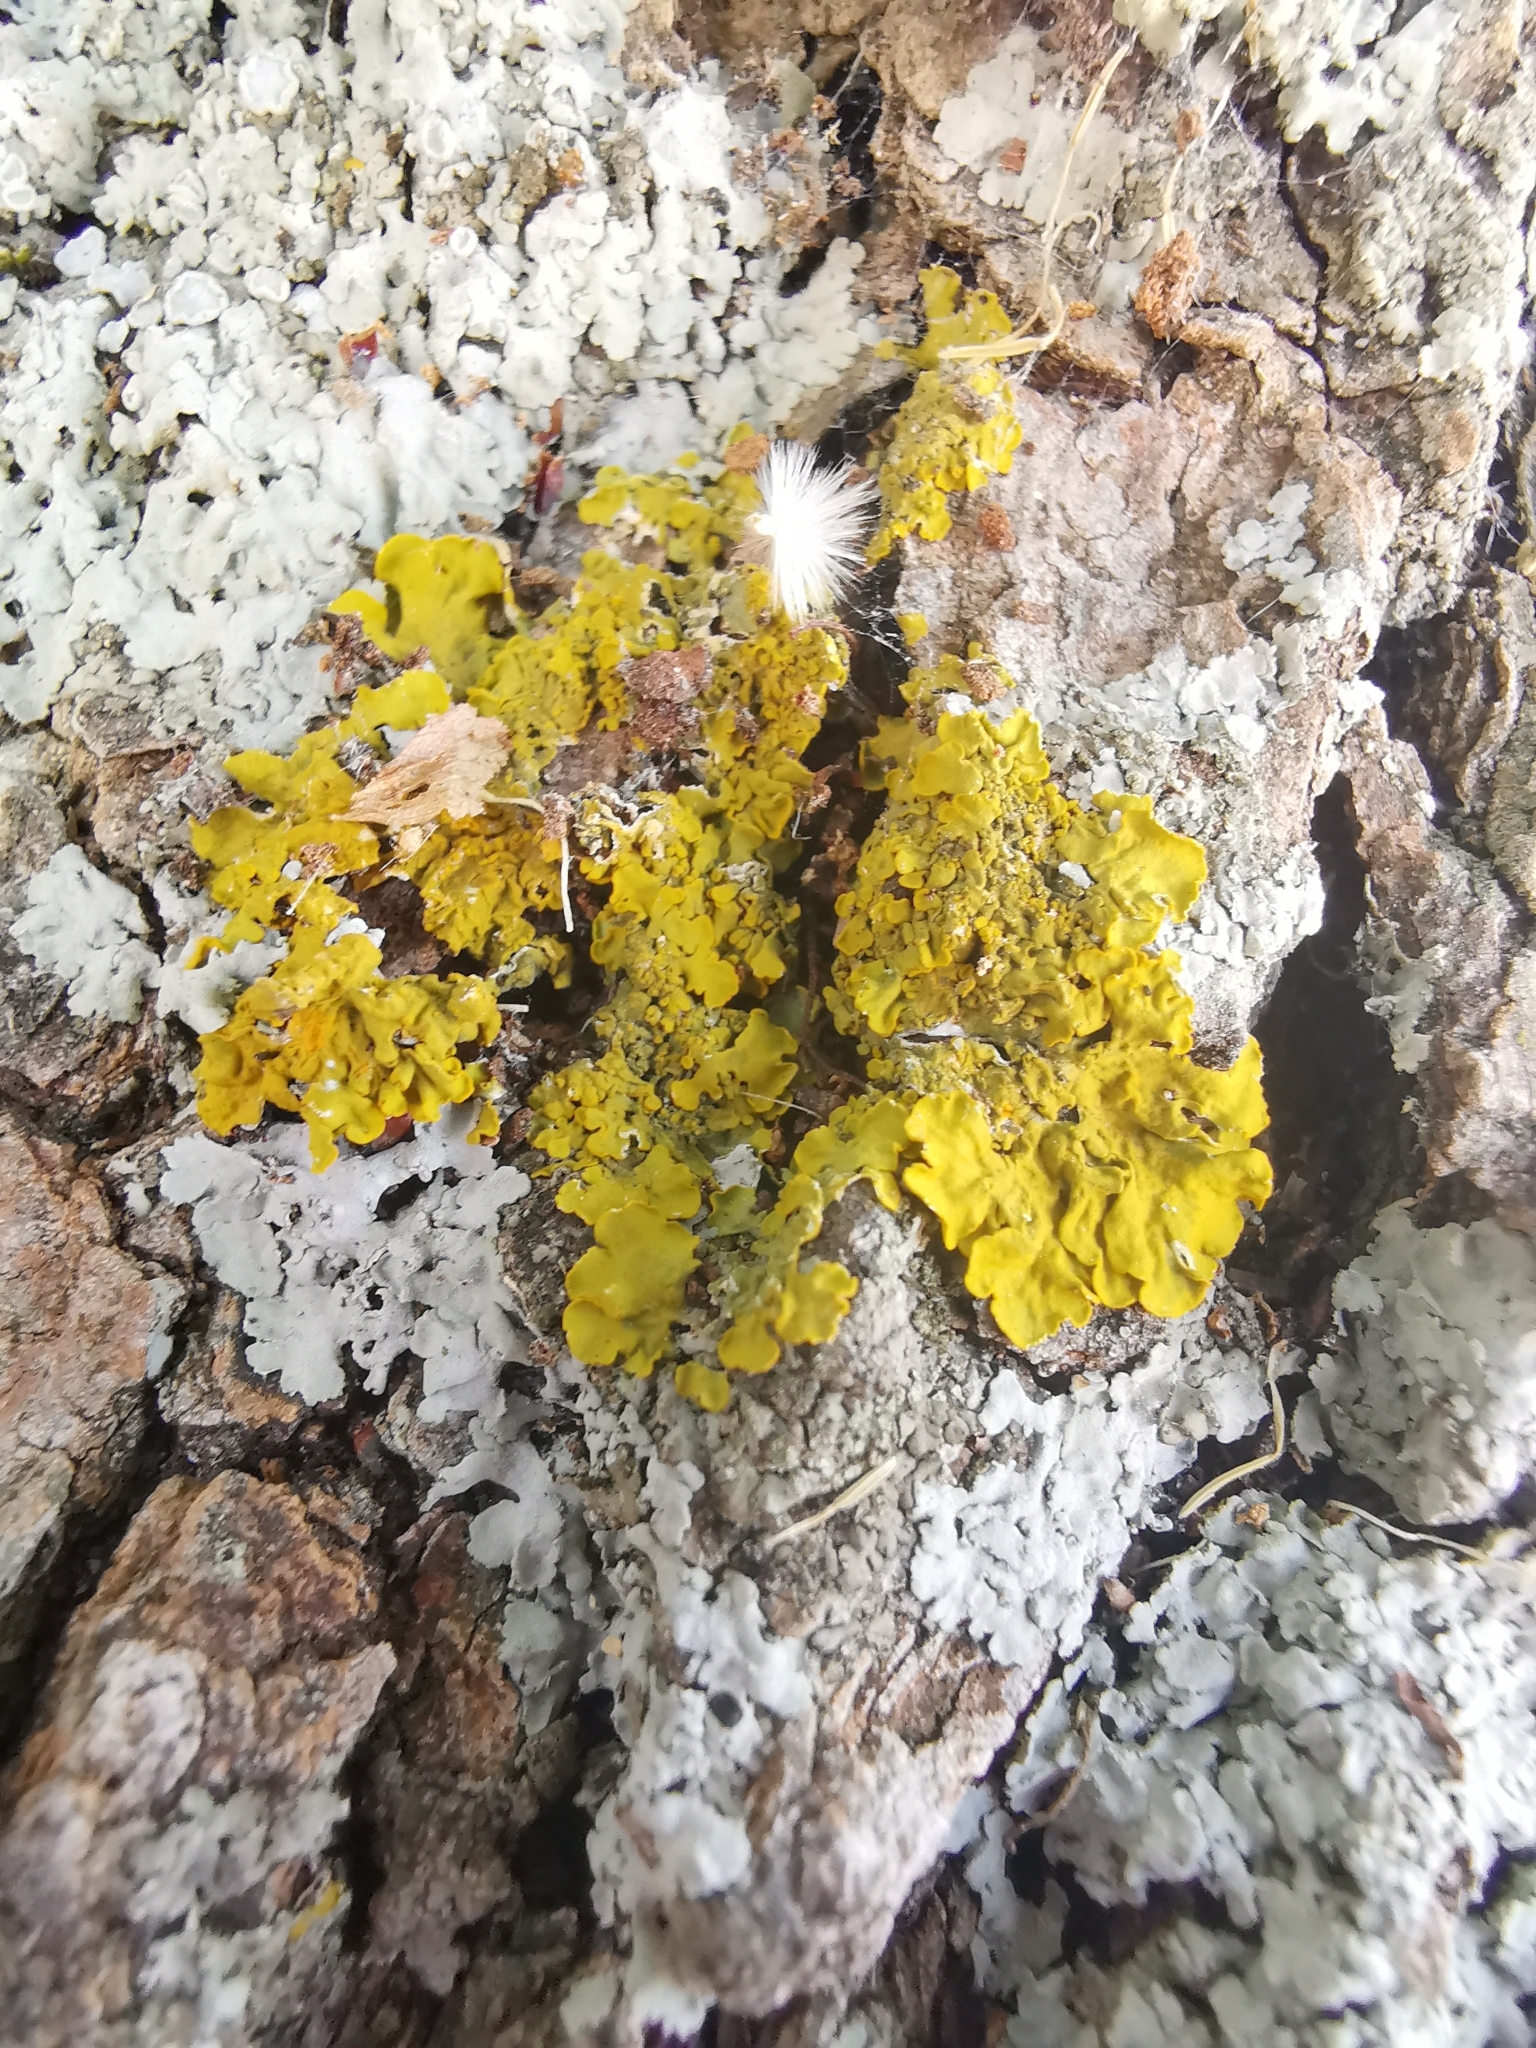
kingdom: Fungi
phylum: Ascomycota
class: Lecanoromycetes
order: Teloschistales
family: Teloschistaceae
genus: Xanthoria
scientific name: Xanthoria parietina
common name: Common orange lichen
